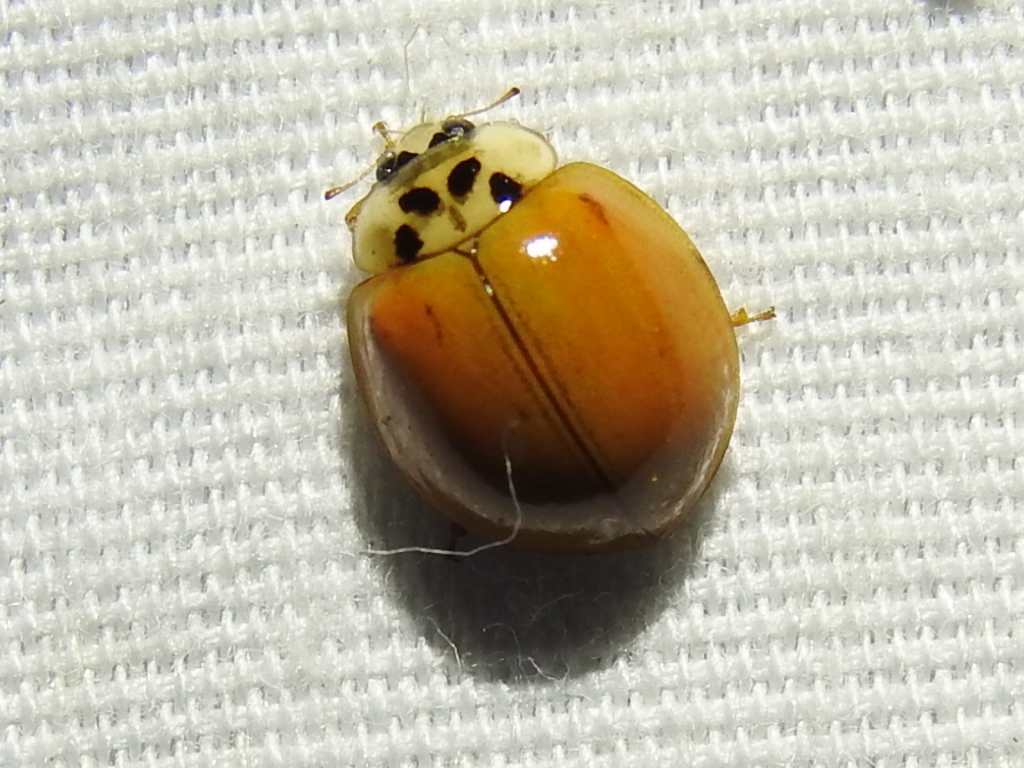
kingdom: Animalia
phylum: Arthropoda
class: Insecta
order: Coleoptera
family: Coccinellidae
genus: Harmonia
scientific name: Harmonia axyridis
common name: Harlequin ladybird
